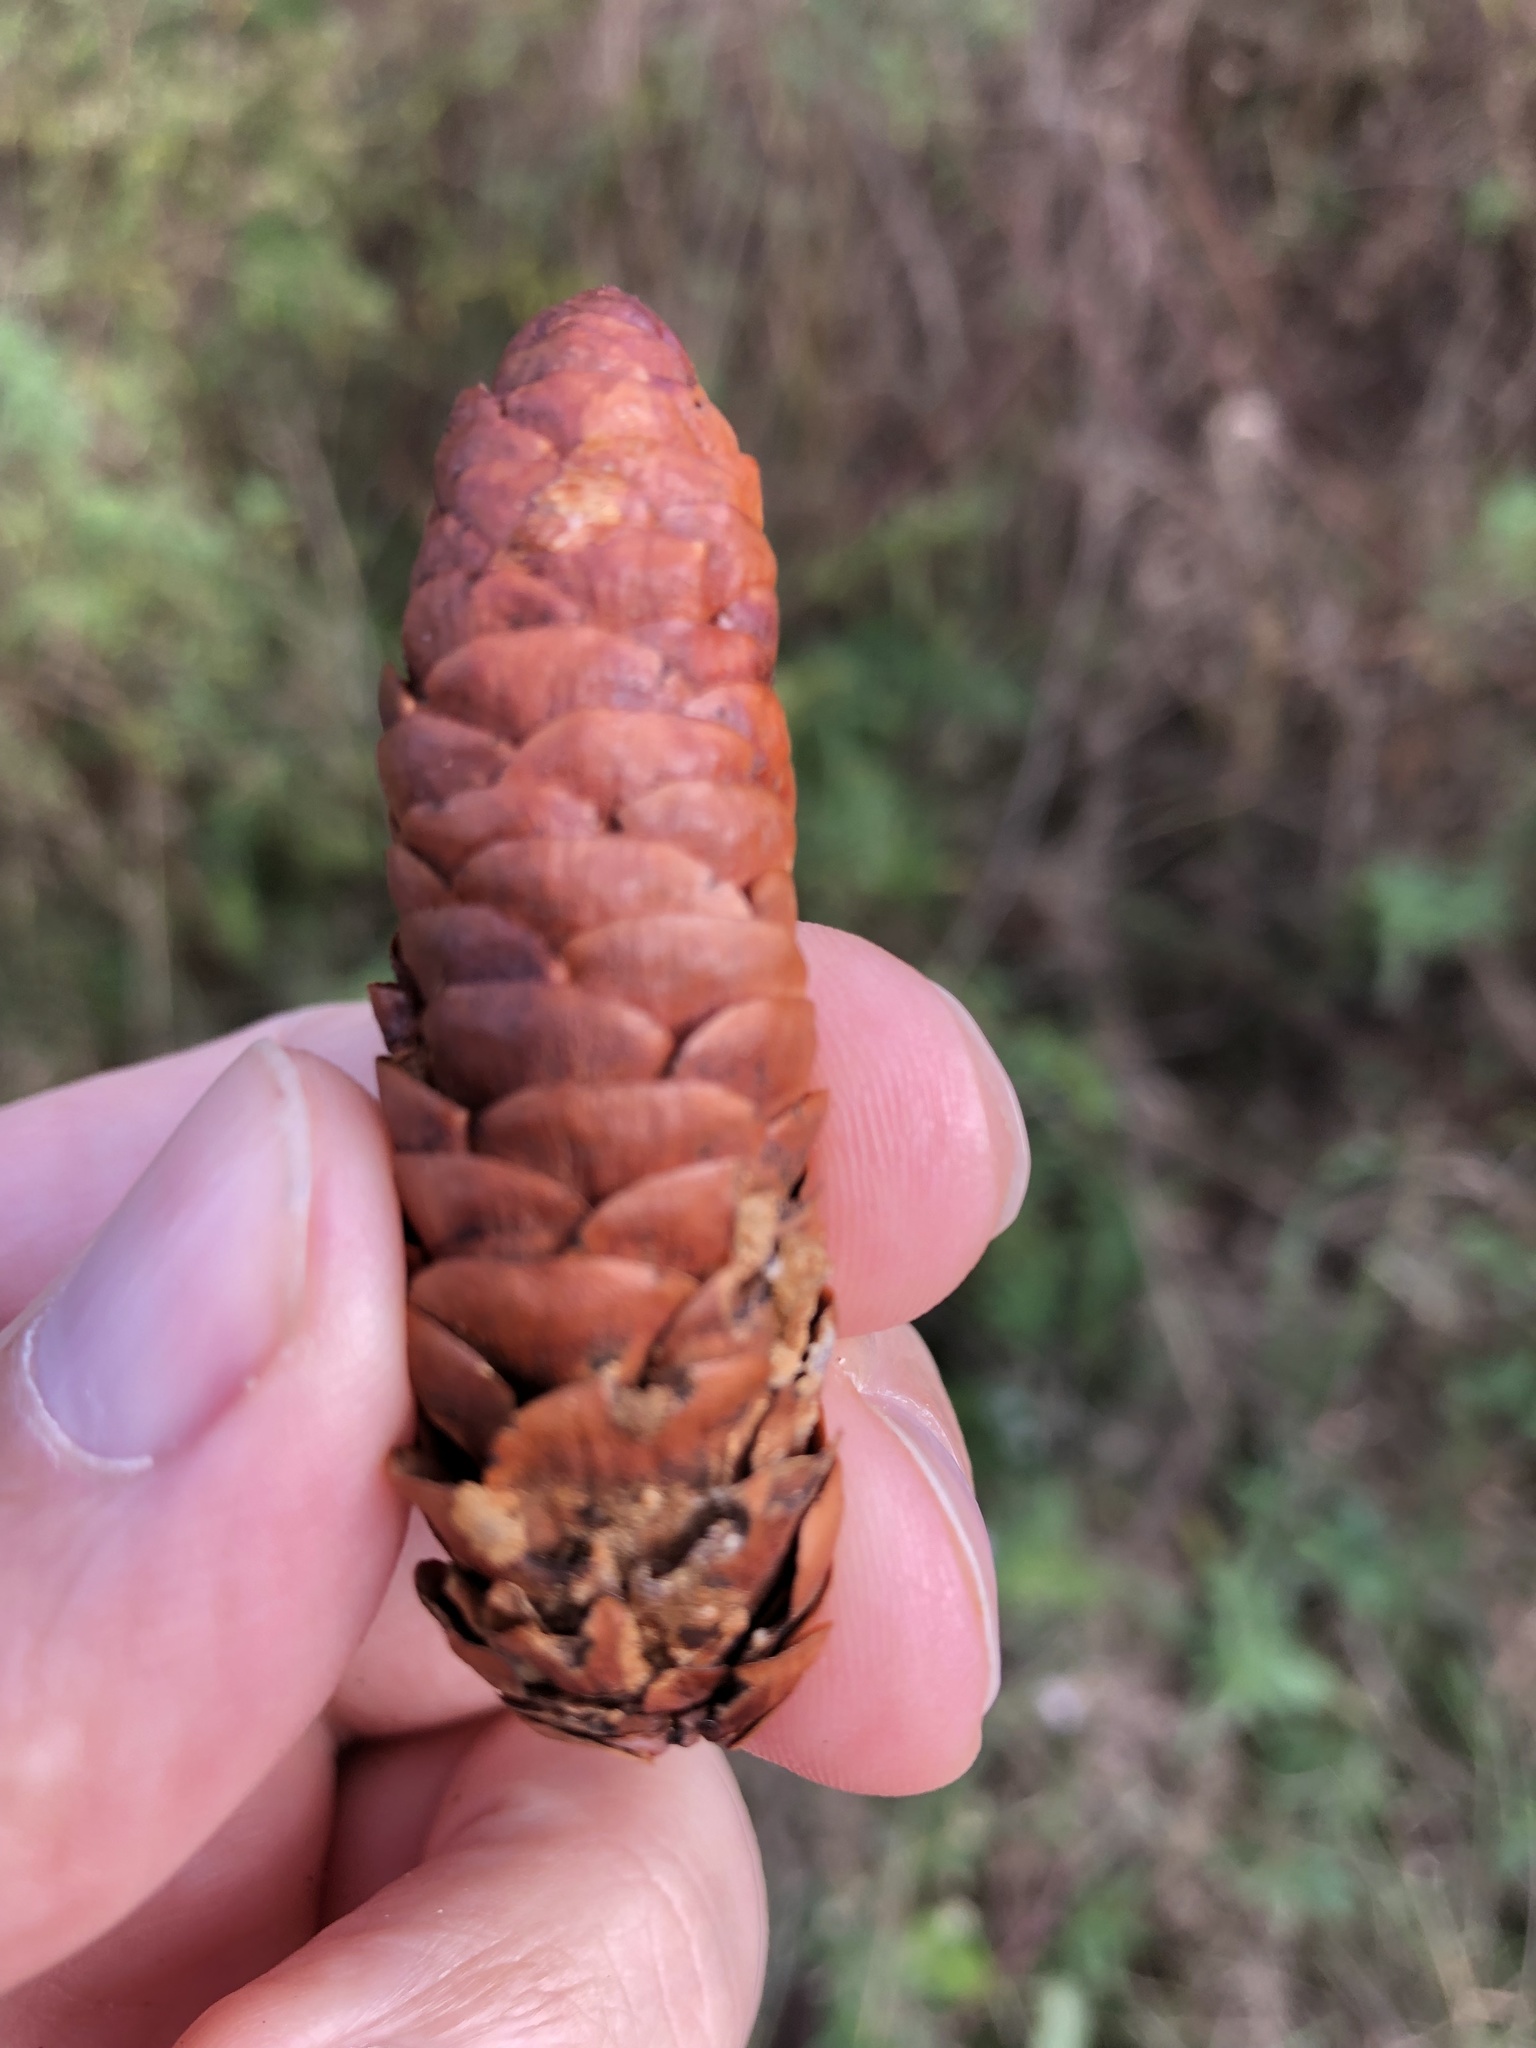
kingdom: Plantae
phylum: Tracheophyta
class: Pinopsida
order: Pinales
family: Pinaceae
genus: Picea
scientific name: Picea glauca
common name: White spruce
